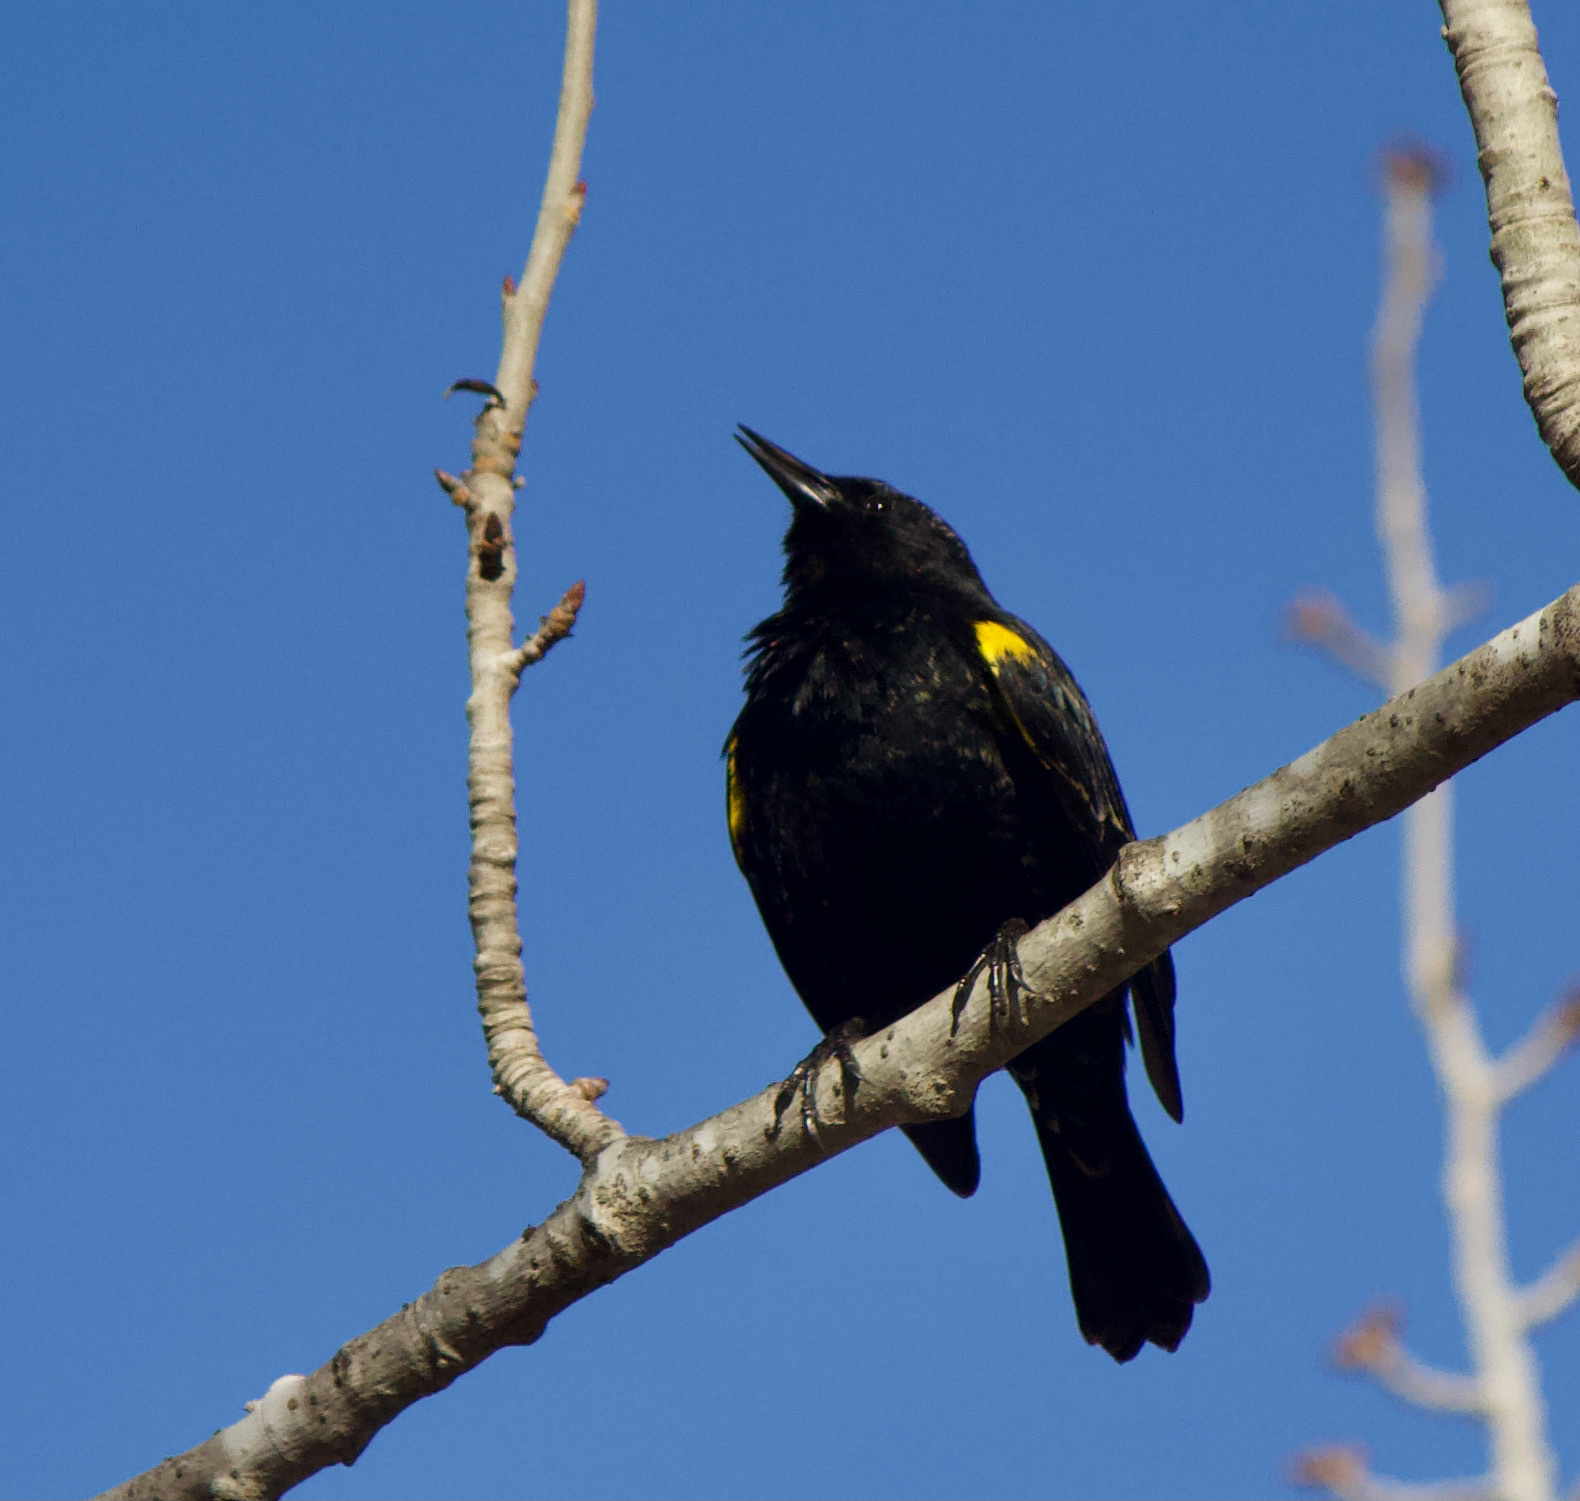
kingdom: Animalia
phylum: Chordata
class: Aves
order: Passeriformes
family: Icteridae
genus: Agelasticus
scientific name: Agelasticus thilius
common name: Yellow-winged blackbird
